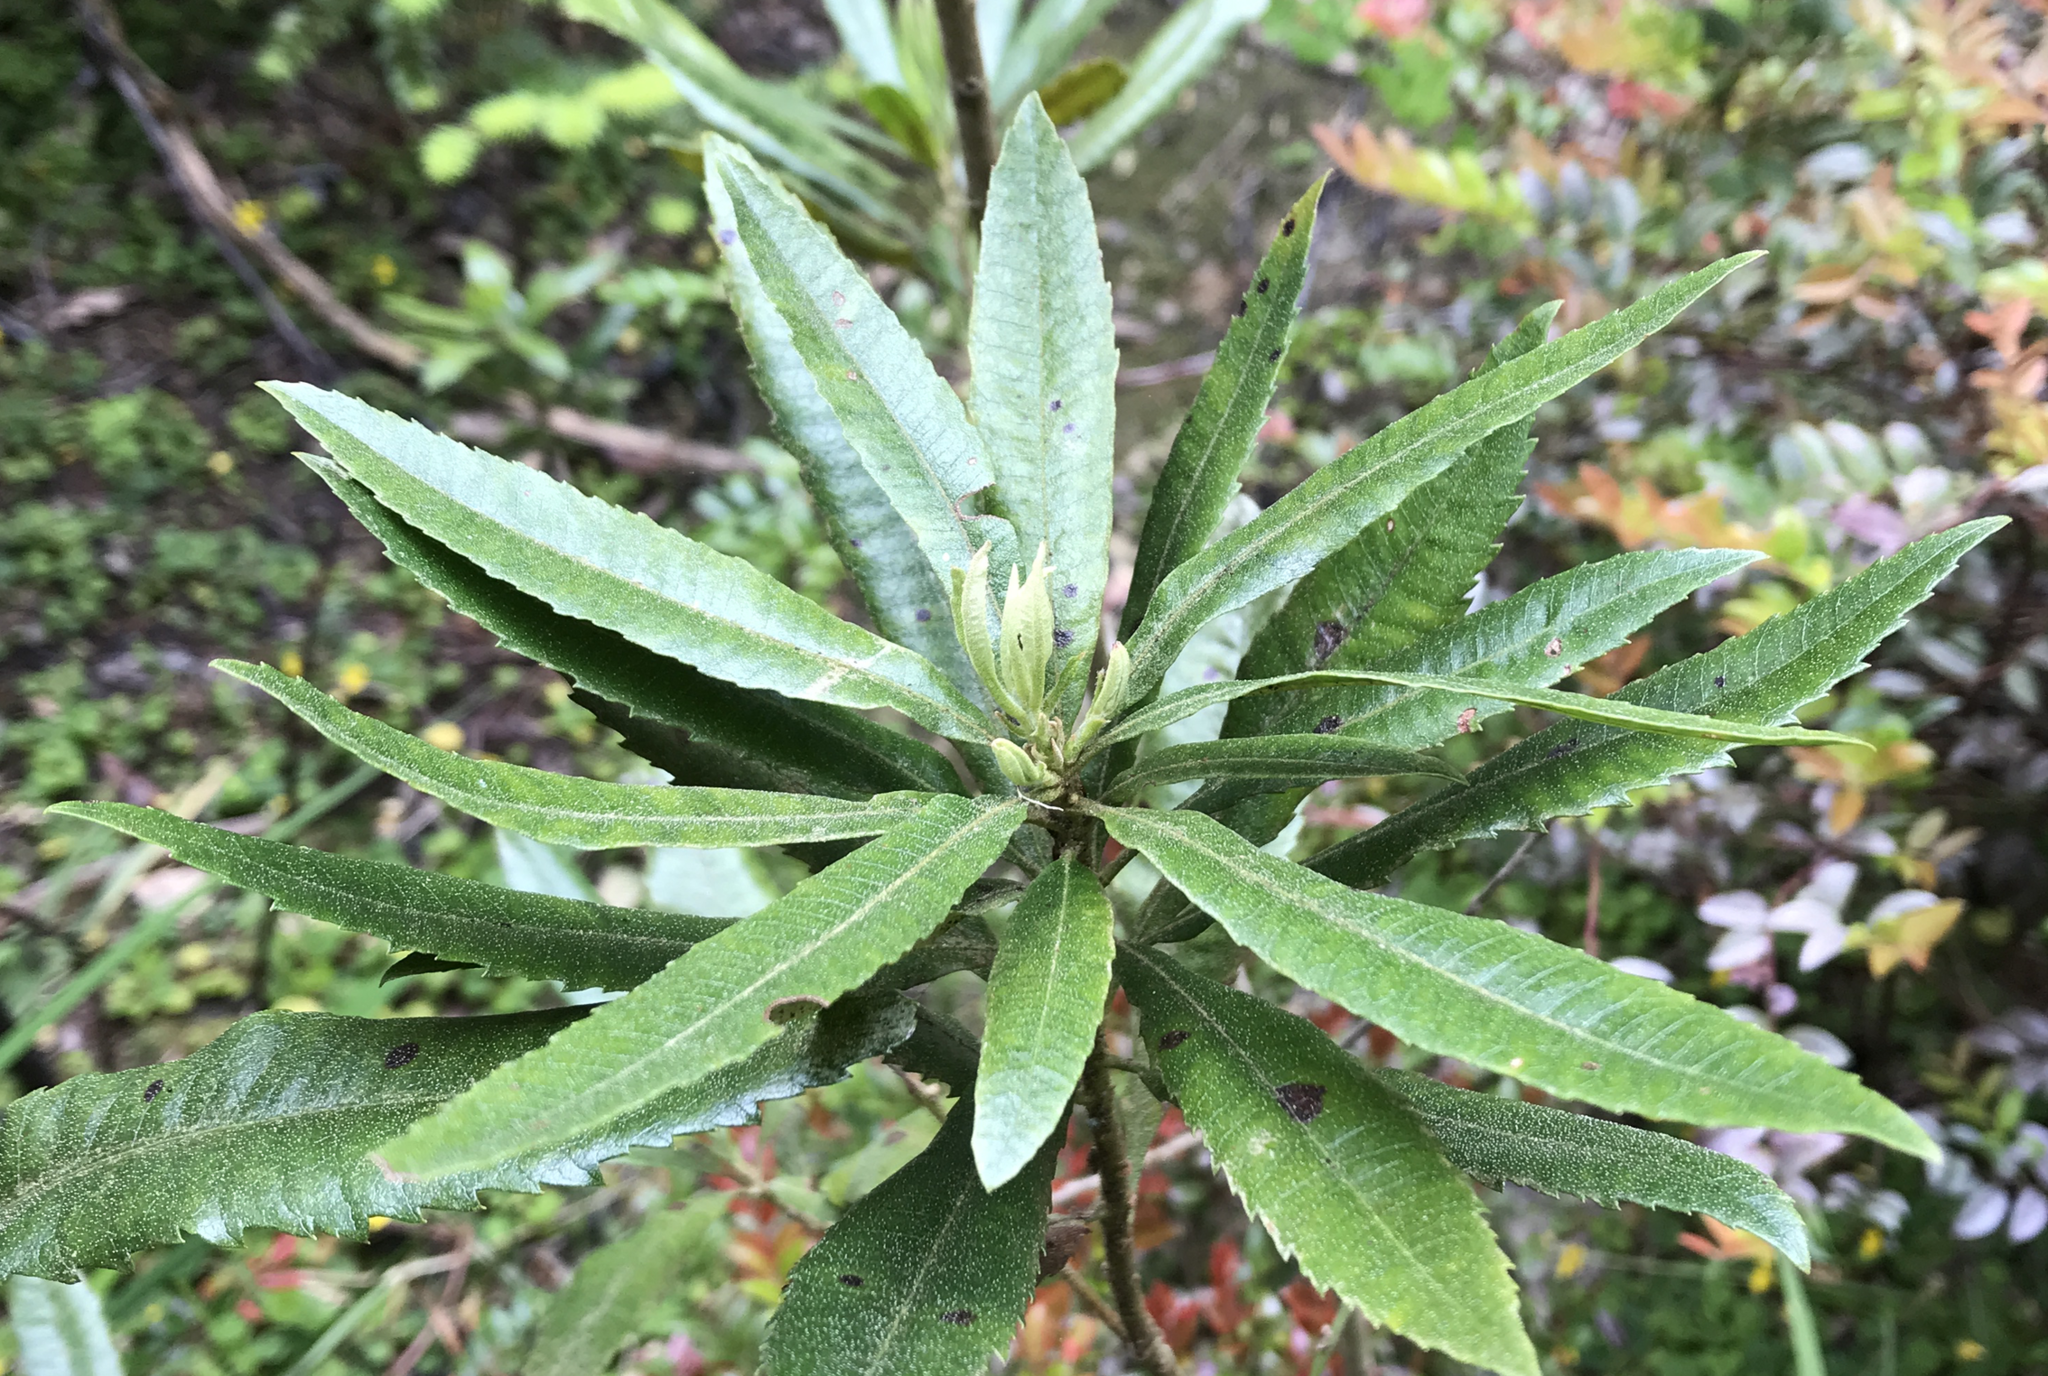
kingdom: Plantae
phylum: Tracheophyta
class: Magnoliopsida
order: Fagales
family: Myricaceae
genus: Morella
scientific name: Morella californica
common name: California wax-myrtle
